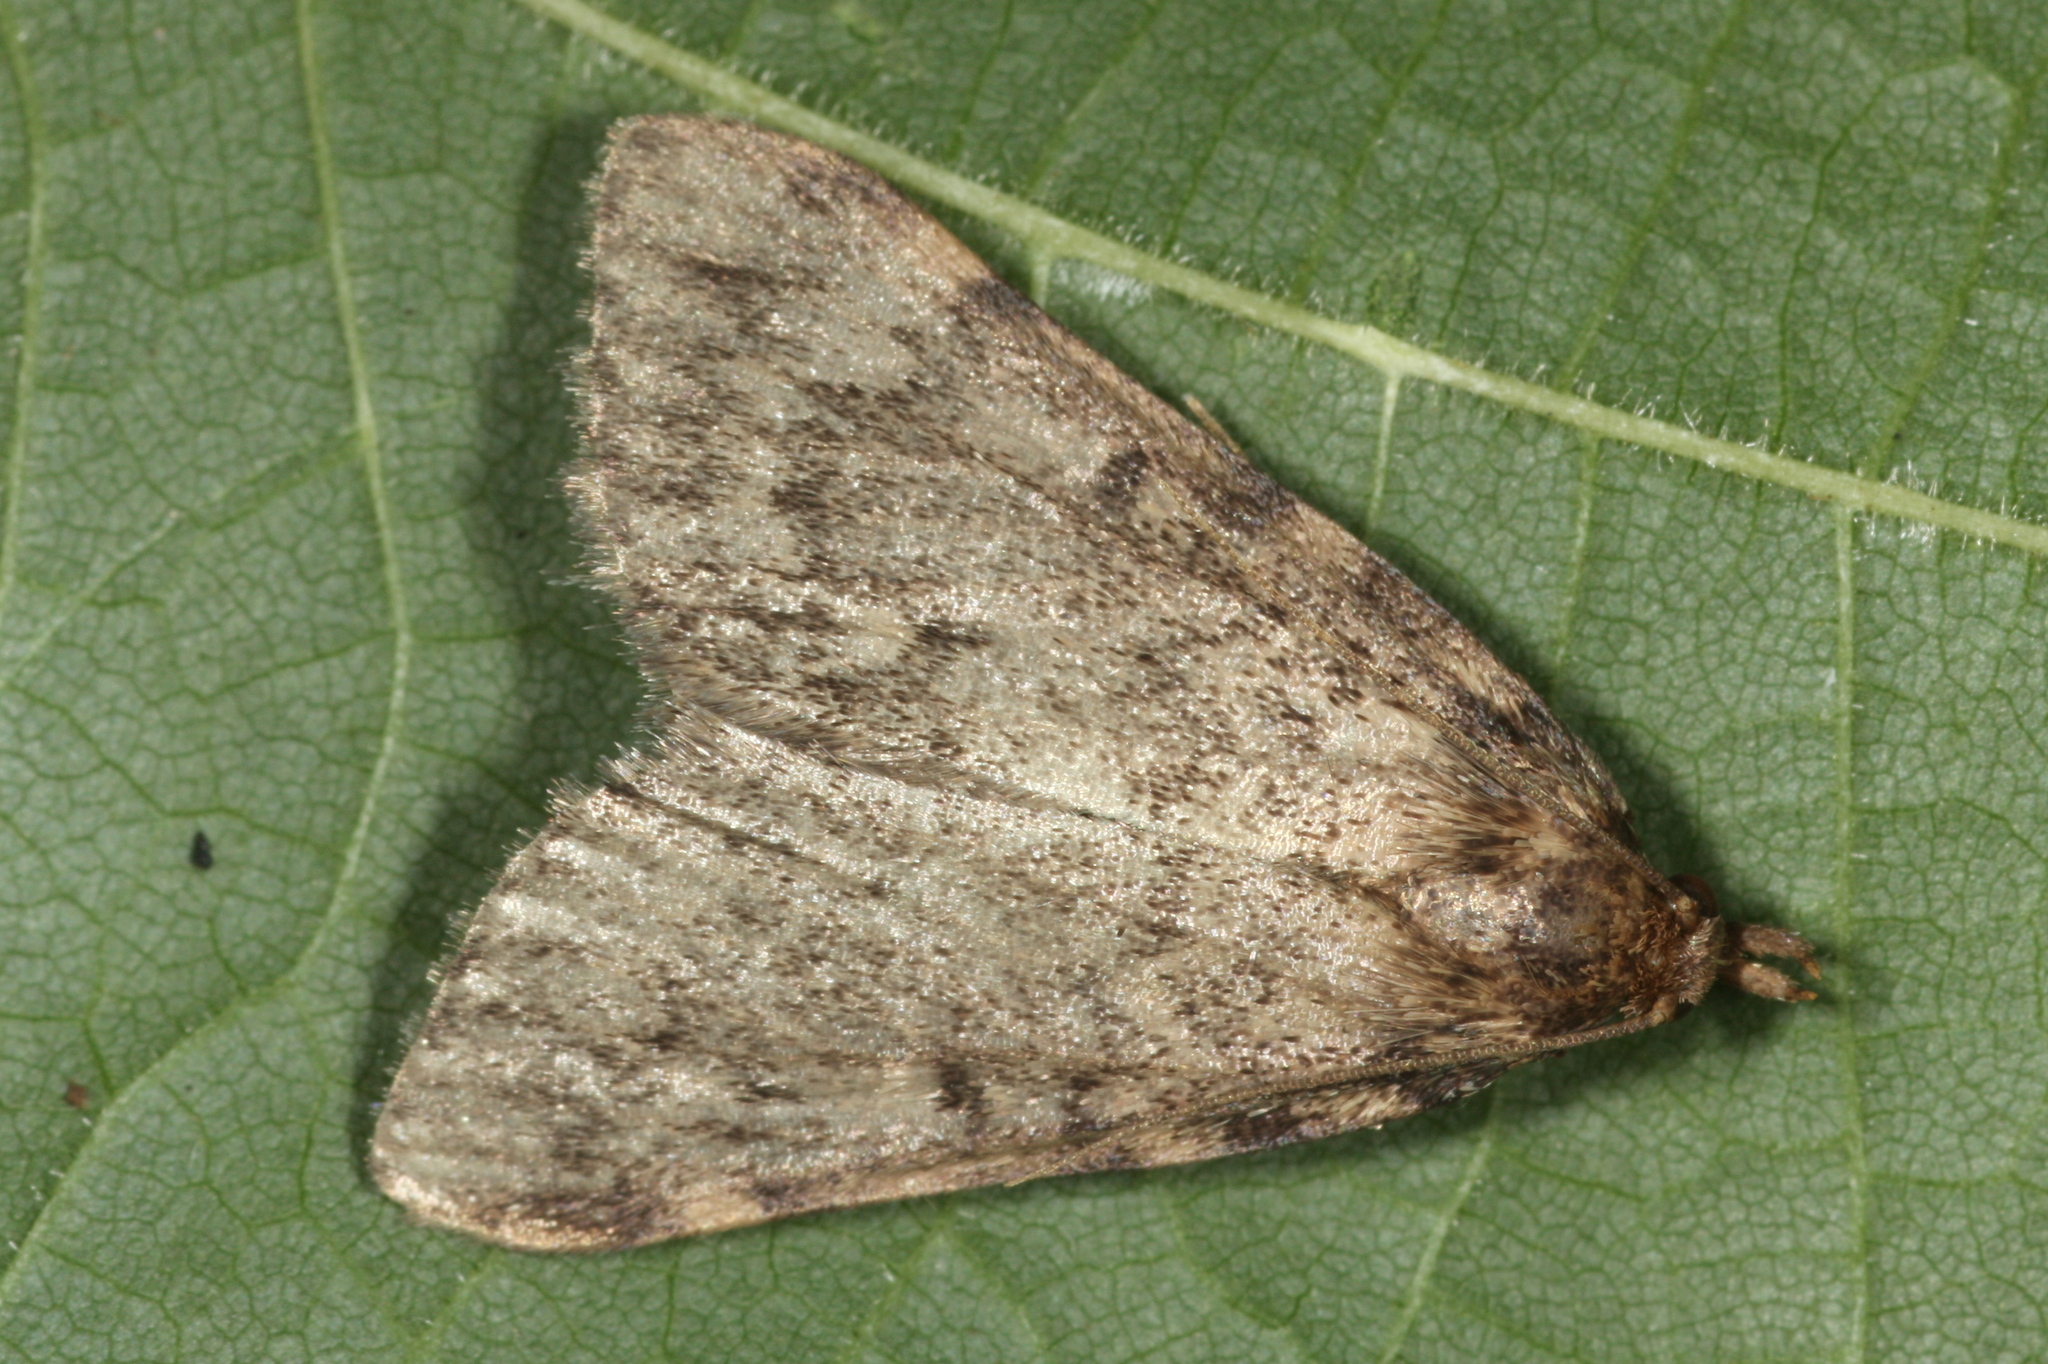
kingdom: Animalia
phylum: Arthropoda
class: Insecta
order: Lepidoptera
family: Pyralidae
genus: Aglossa
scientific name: Aglossa pinguinalis
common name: Large tabby
